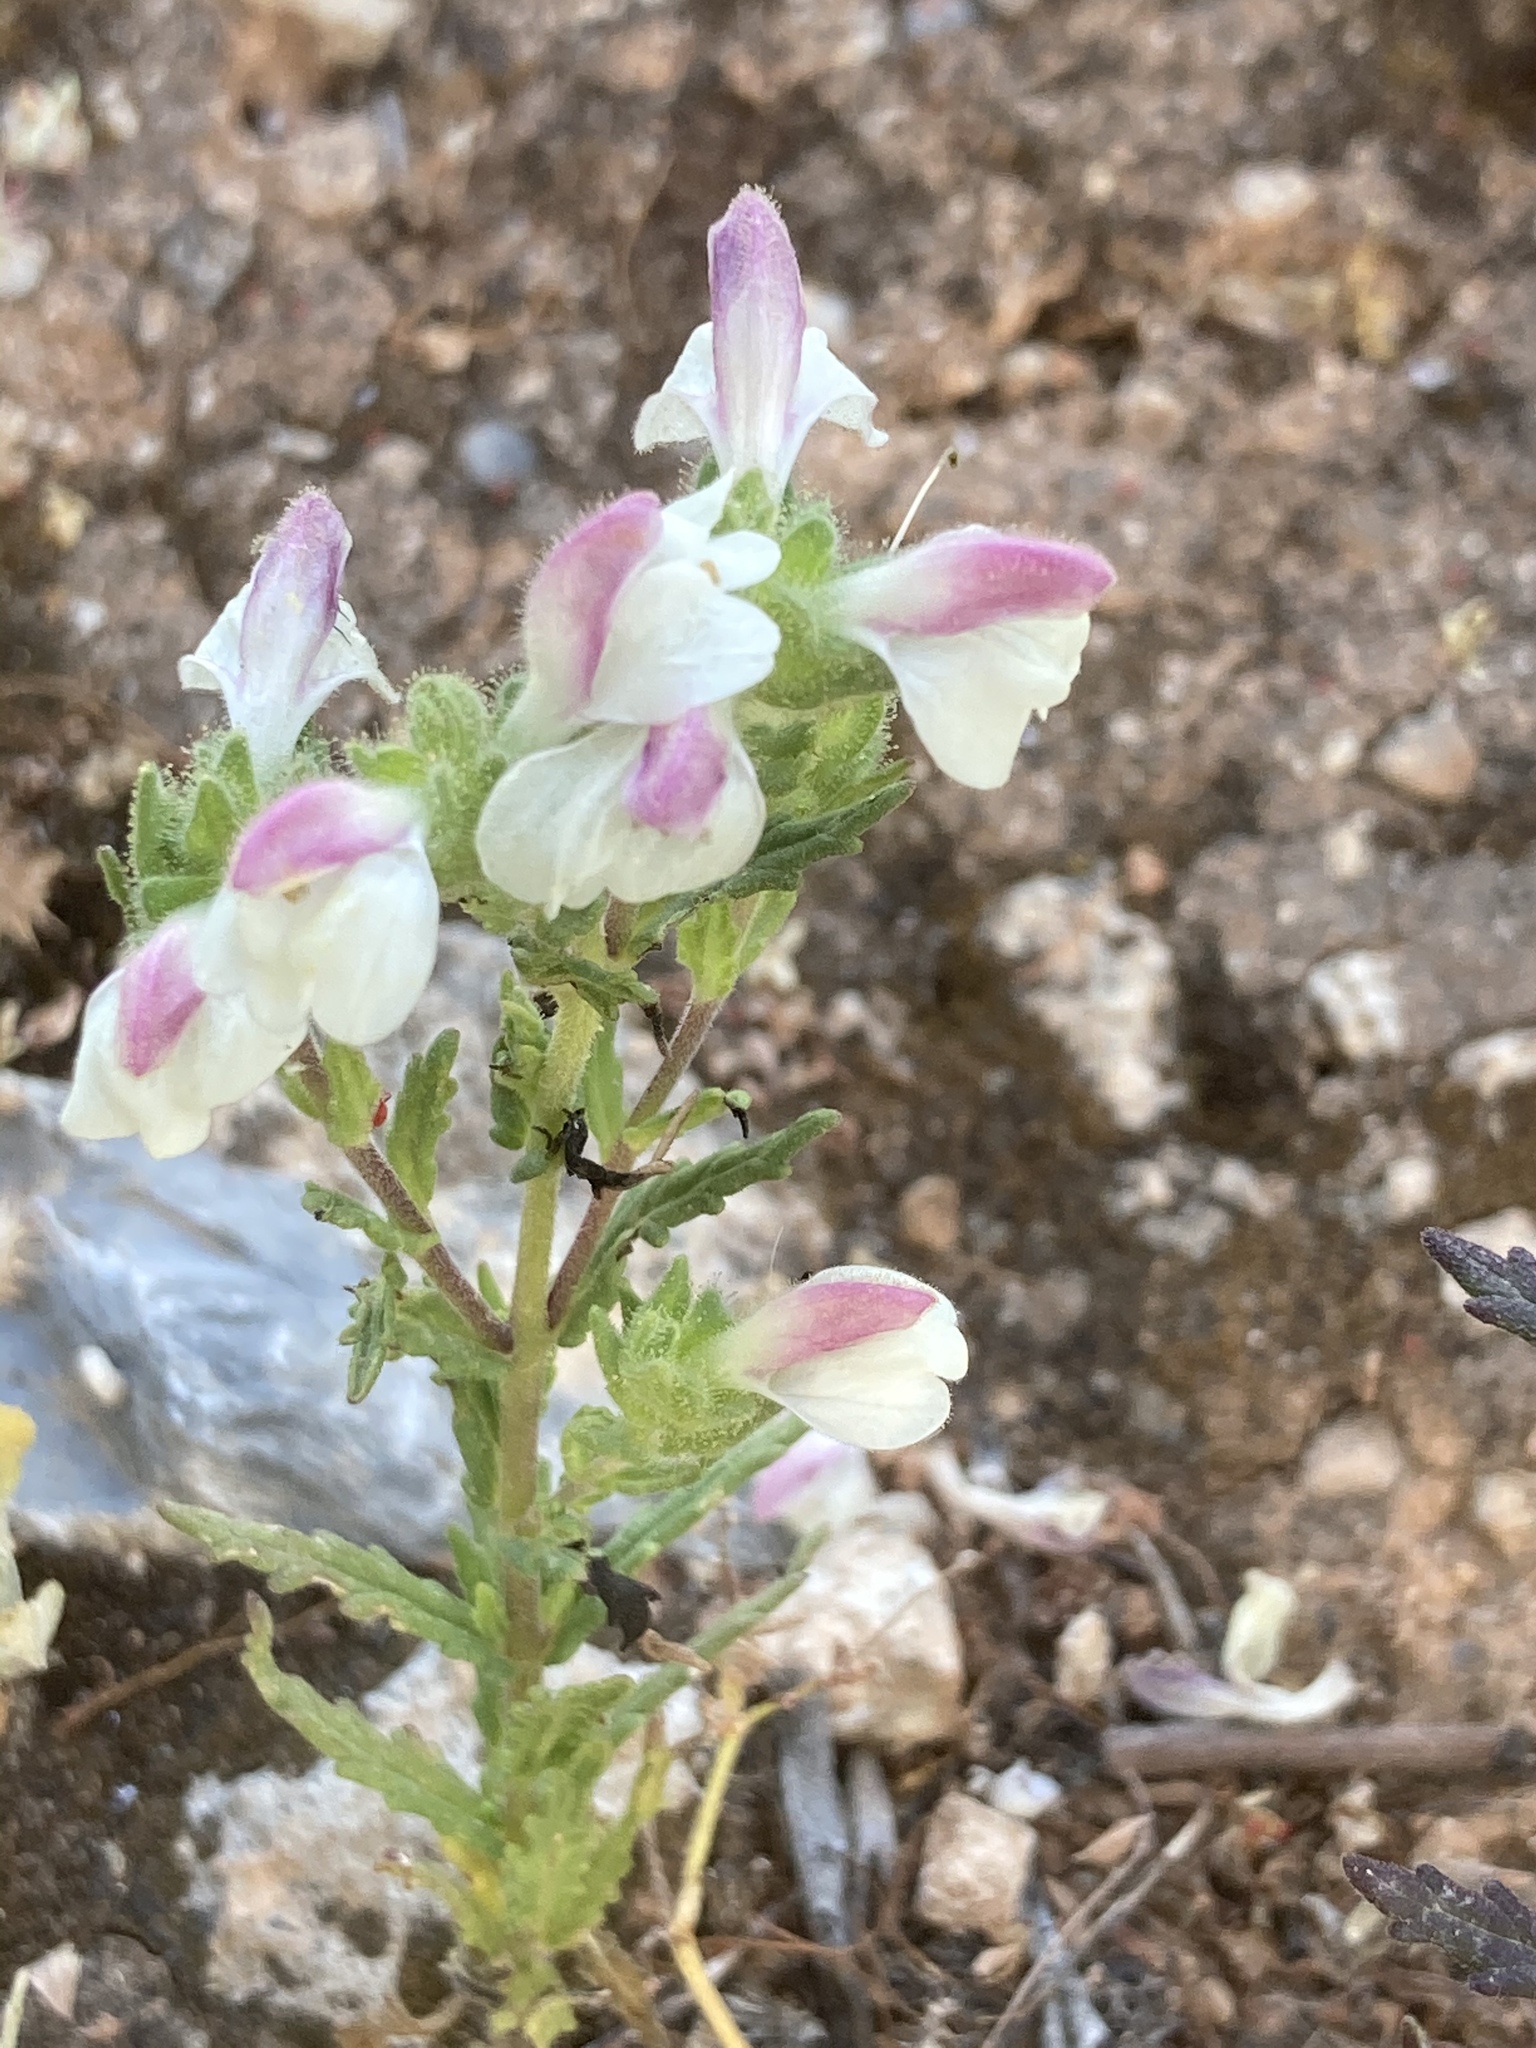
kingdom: Plantae
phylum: Tracheophyta
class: Magnoliopsida
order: Lamiales
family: Orobanchaceae
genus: Bellardia
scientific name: Bellardia trixago
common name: Mediterranean lineseed
